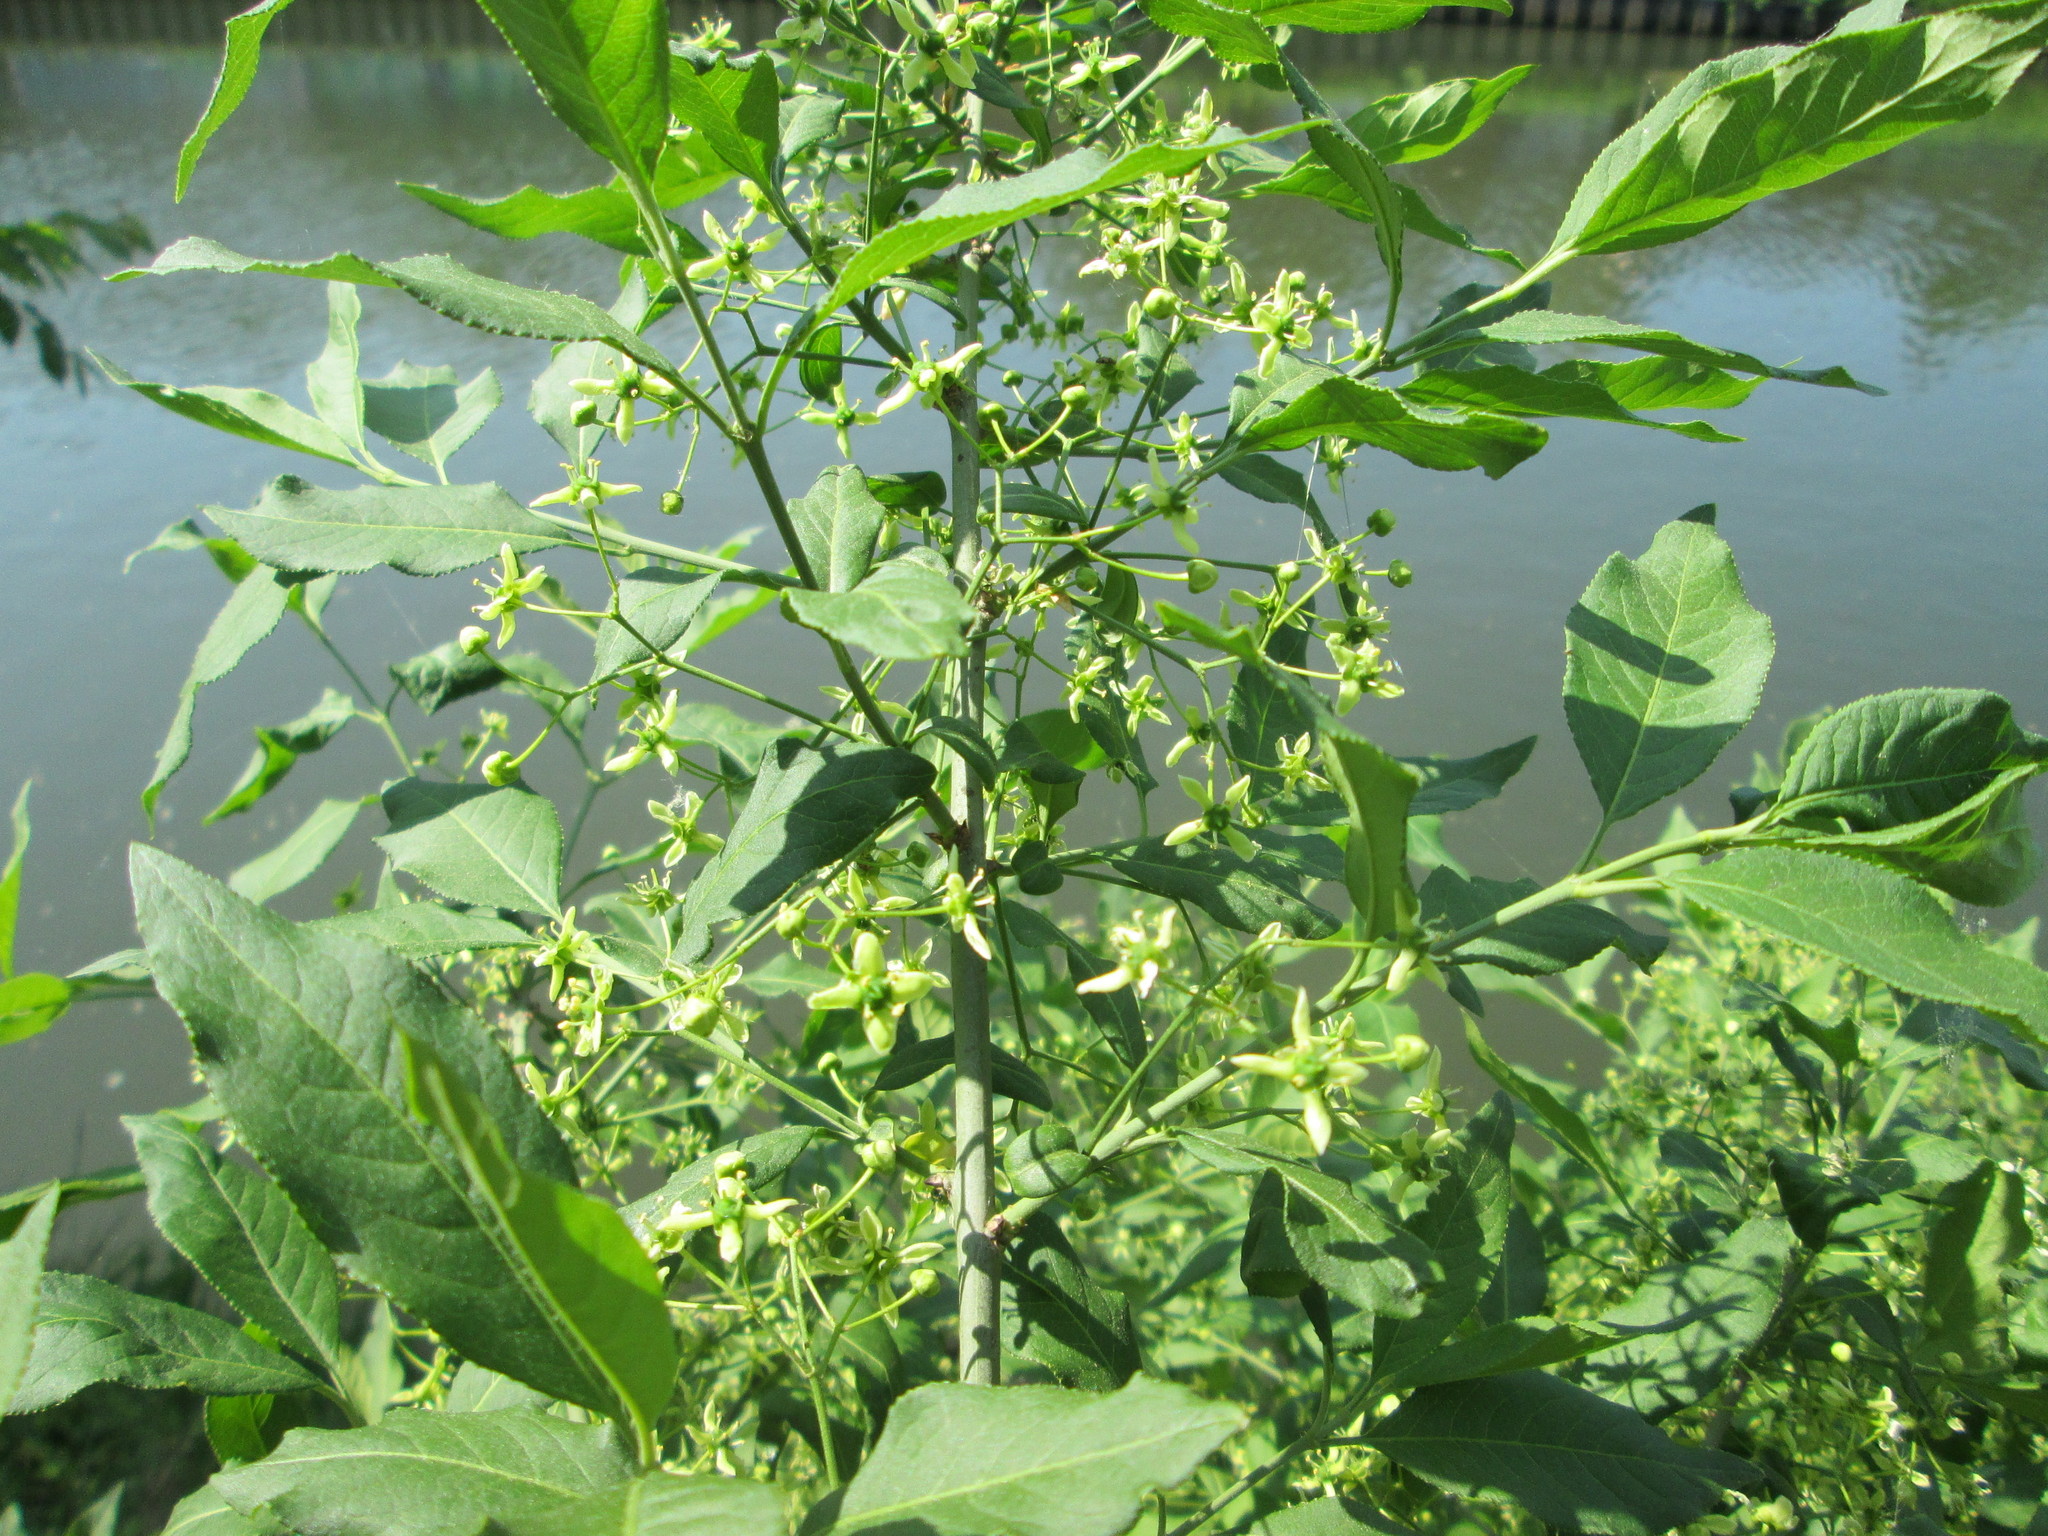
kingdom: Plantae
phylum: Tracheophyta
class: Magnoliopsida
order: Celastrales
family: Celastraceae
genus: Euonymus
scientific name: Euonymus europaeus
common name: Spindle
